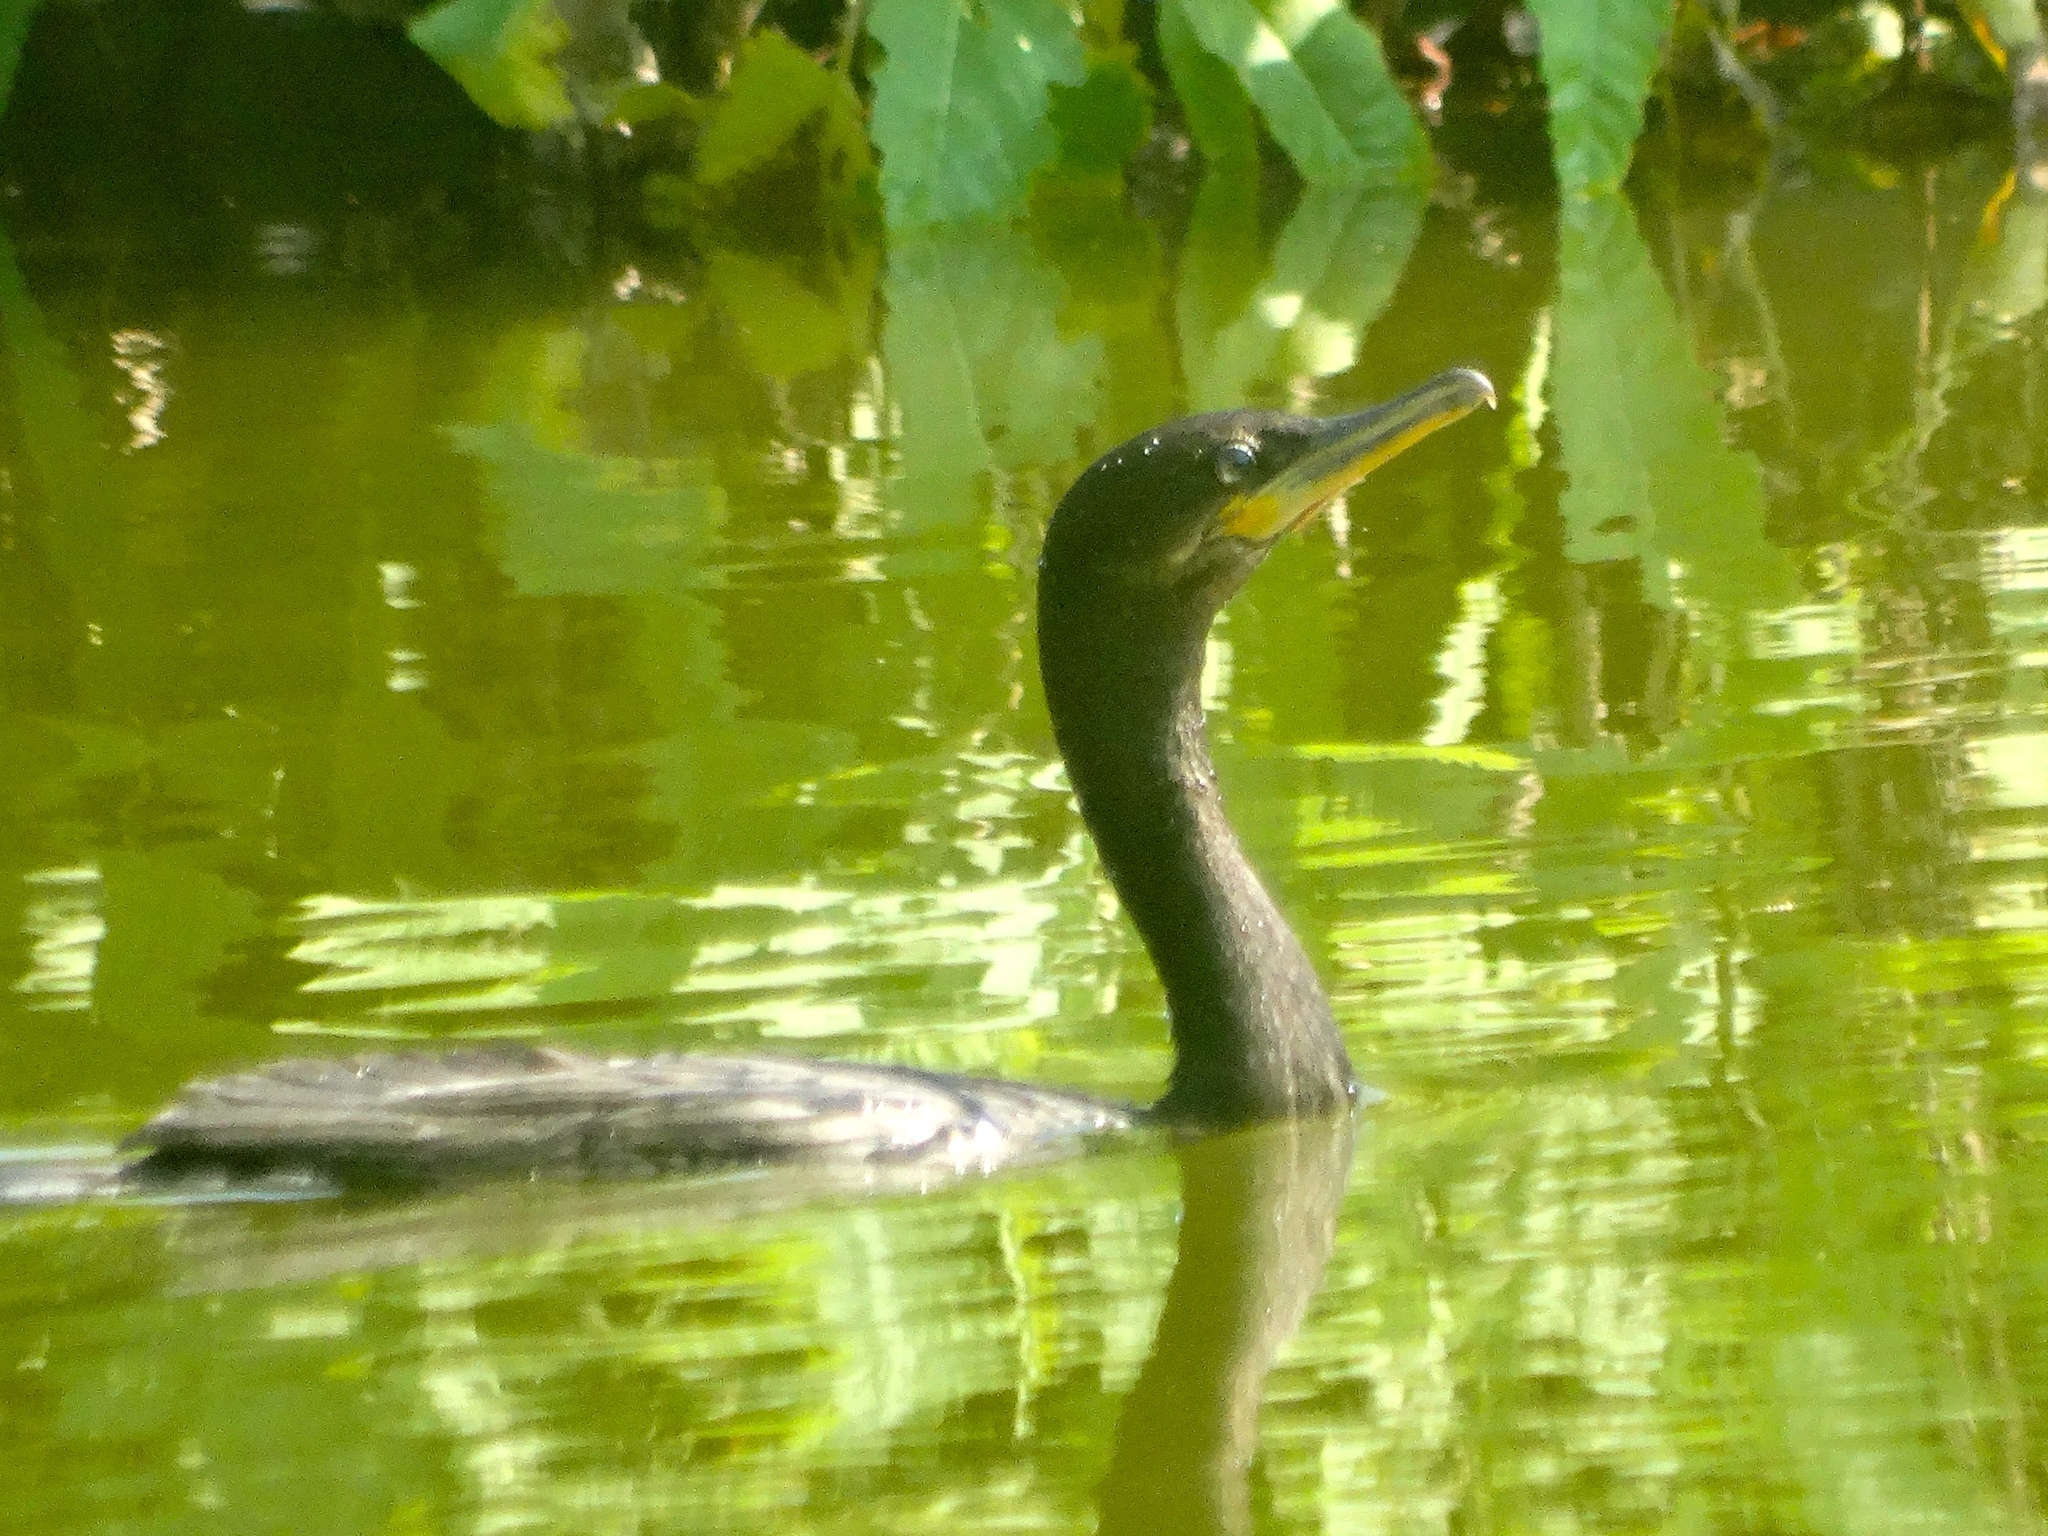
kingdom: Animalia
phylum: Chordata
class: Aves
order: Suliformes
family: Phalacrocoracidae
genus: Phalacrocorax
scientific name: Phalacrocorax brasilianus
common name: Neotropic cormorant
